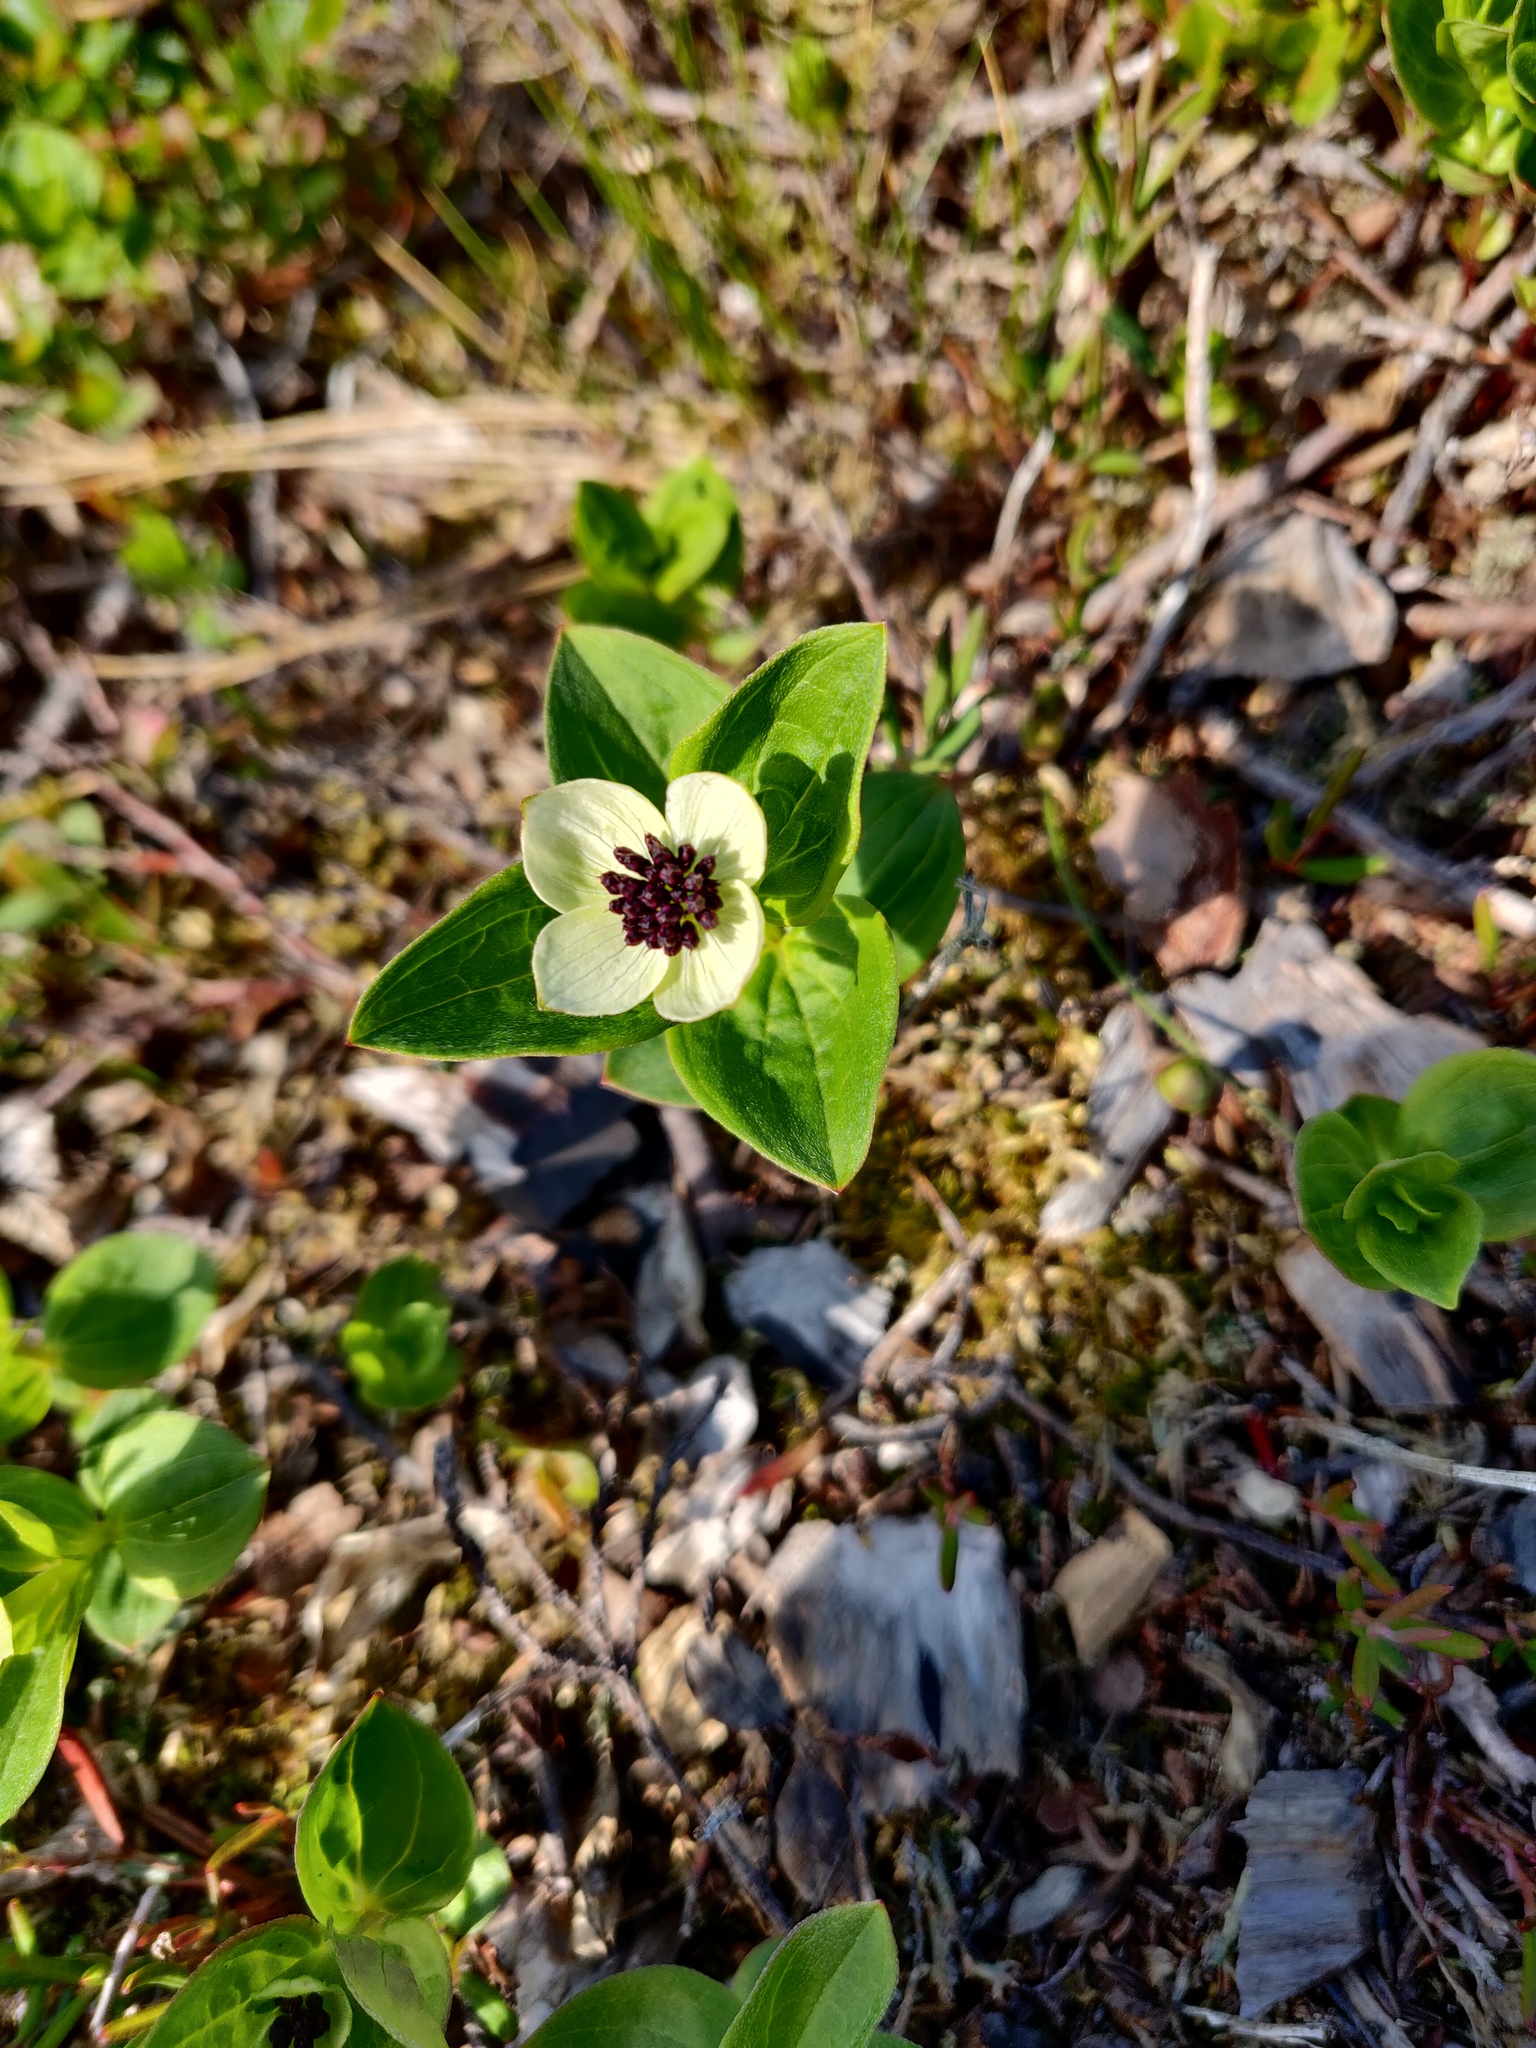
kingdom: Plantae
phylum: Tracheophyta
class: Magnoliopsida
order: Cornales
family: Cornaceae
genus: Cornus
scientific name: Cornus suecica
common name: Dwarf cornel
